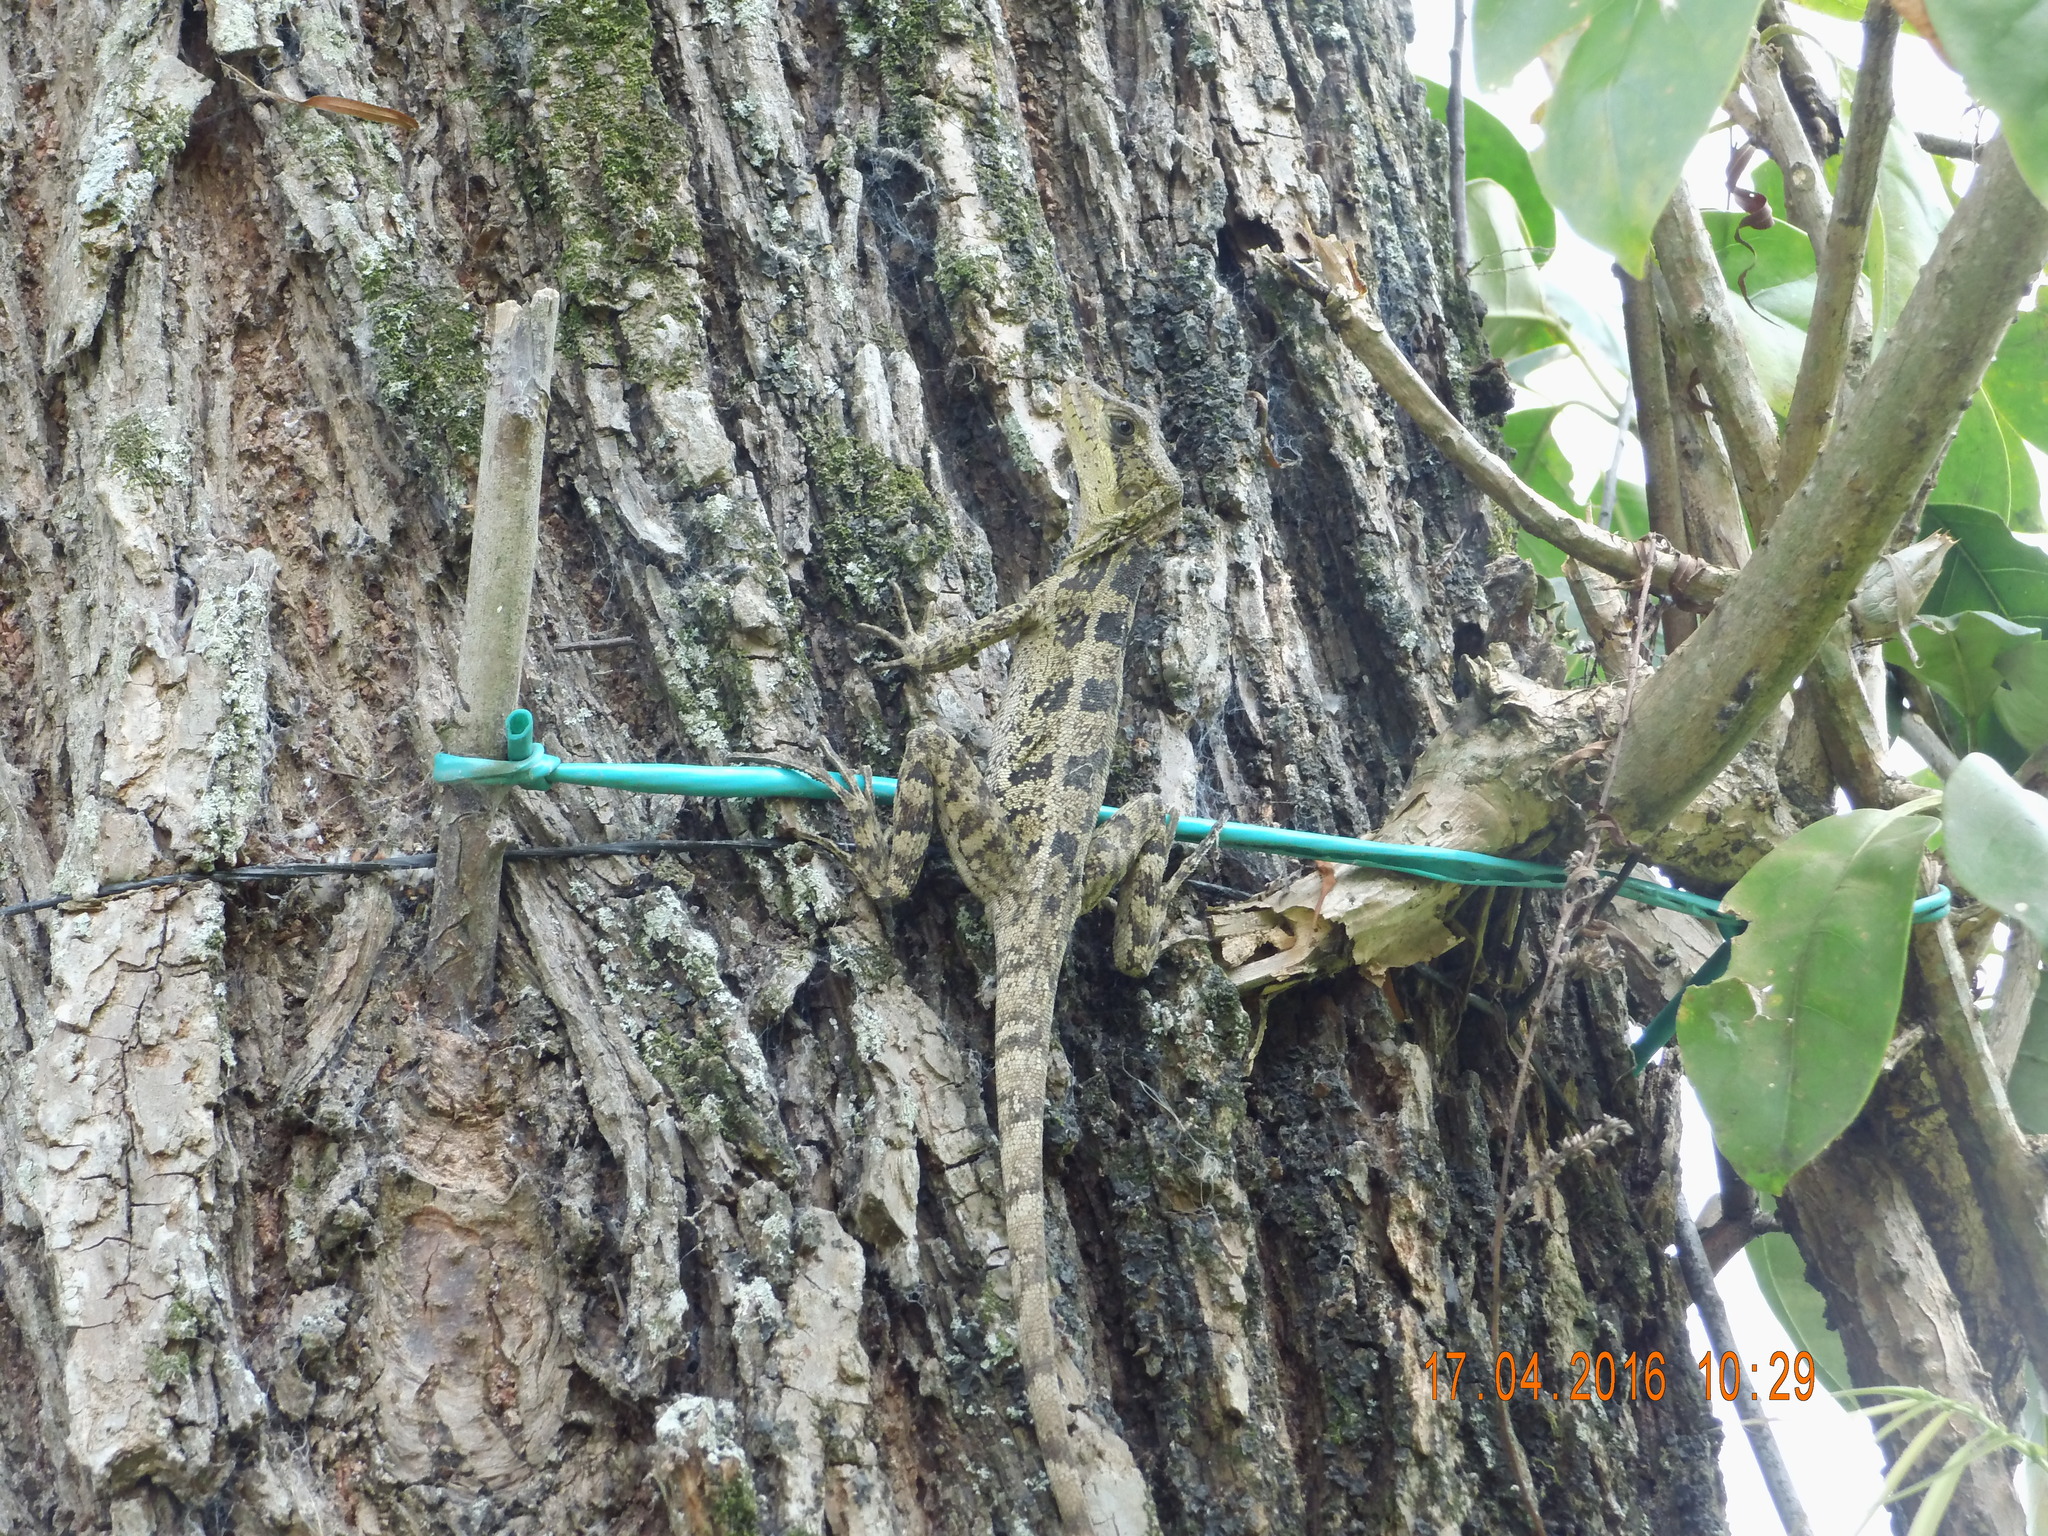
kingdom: Animalia
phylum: Chordata
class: Squamata
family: Corytophanidae
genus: Basiliscus
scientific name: Basiliscus vittatus
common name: Brown basilisk
